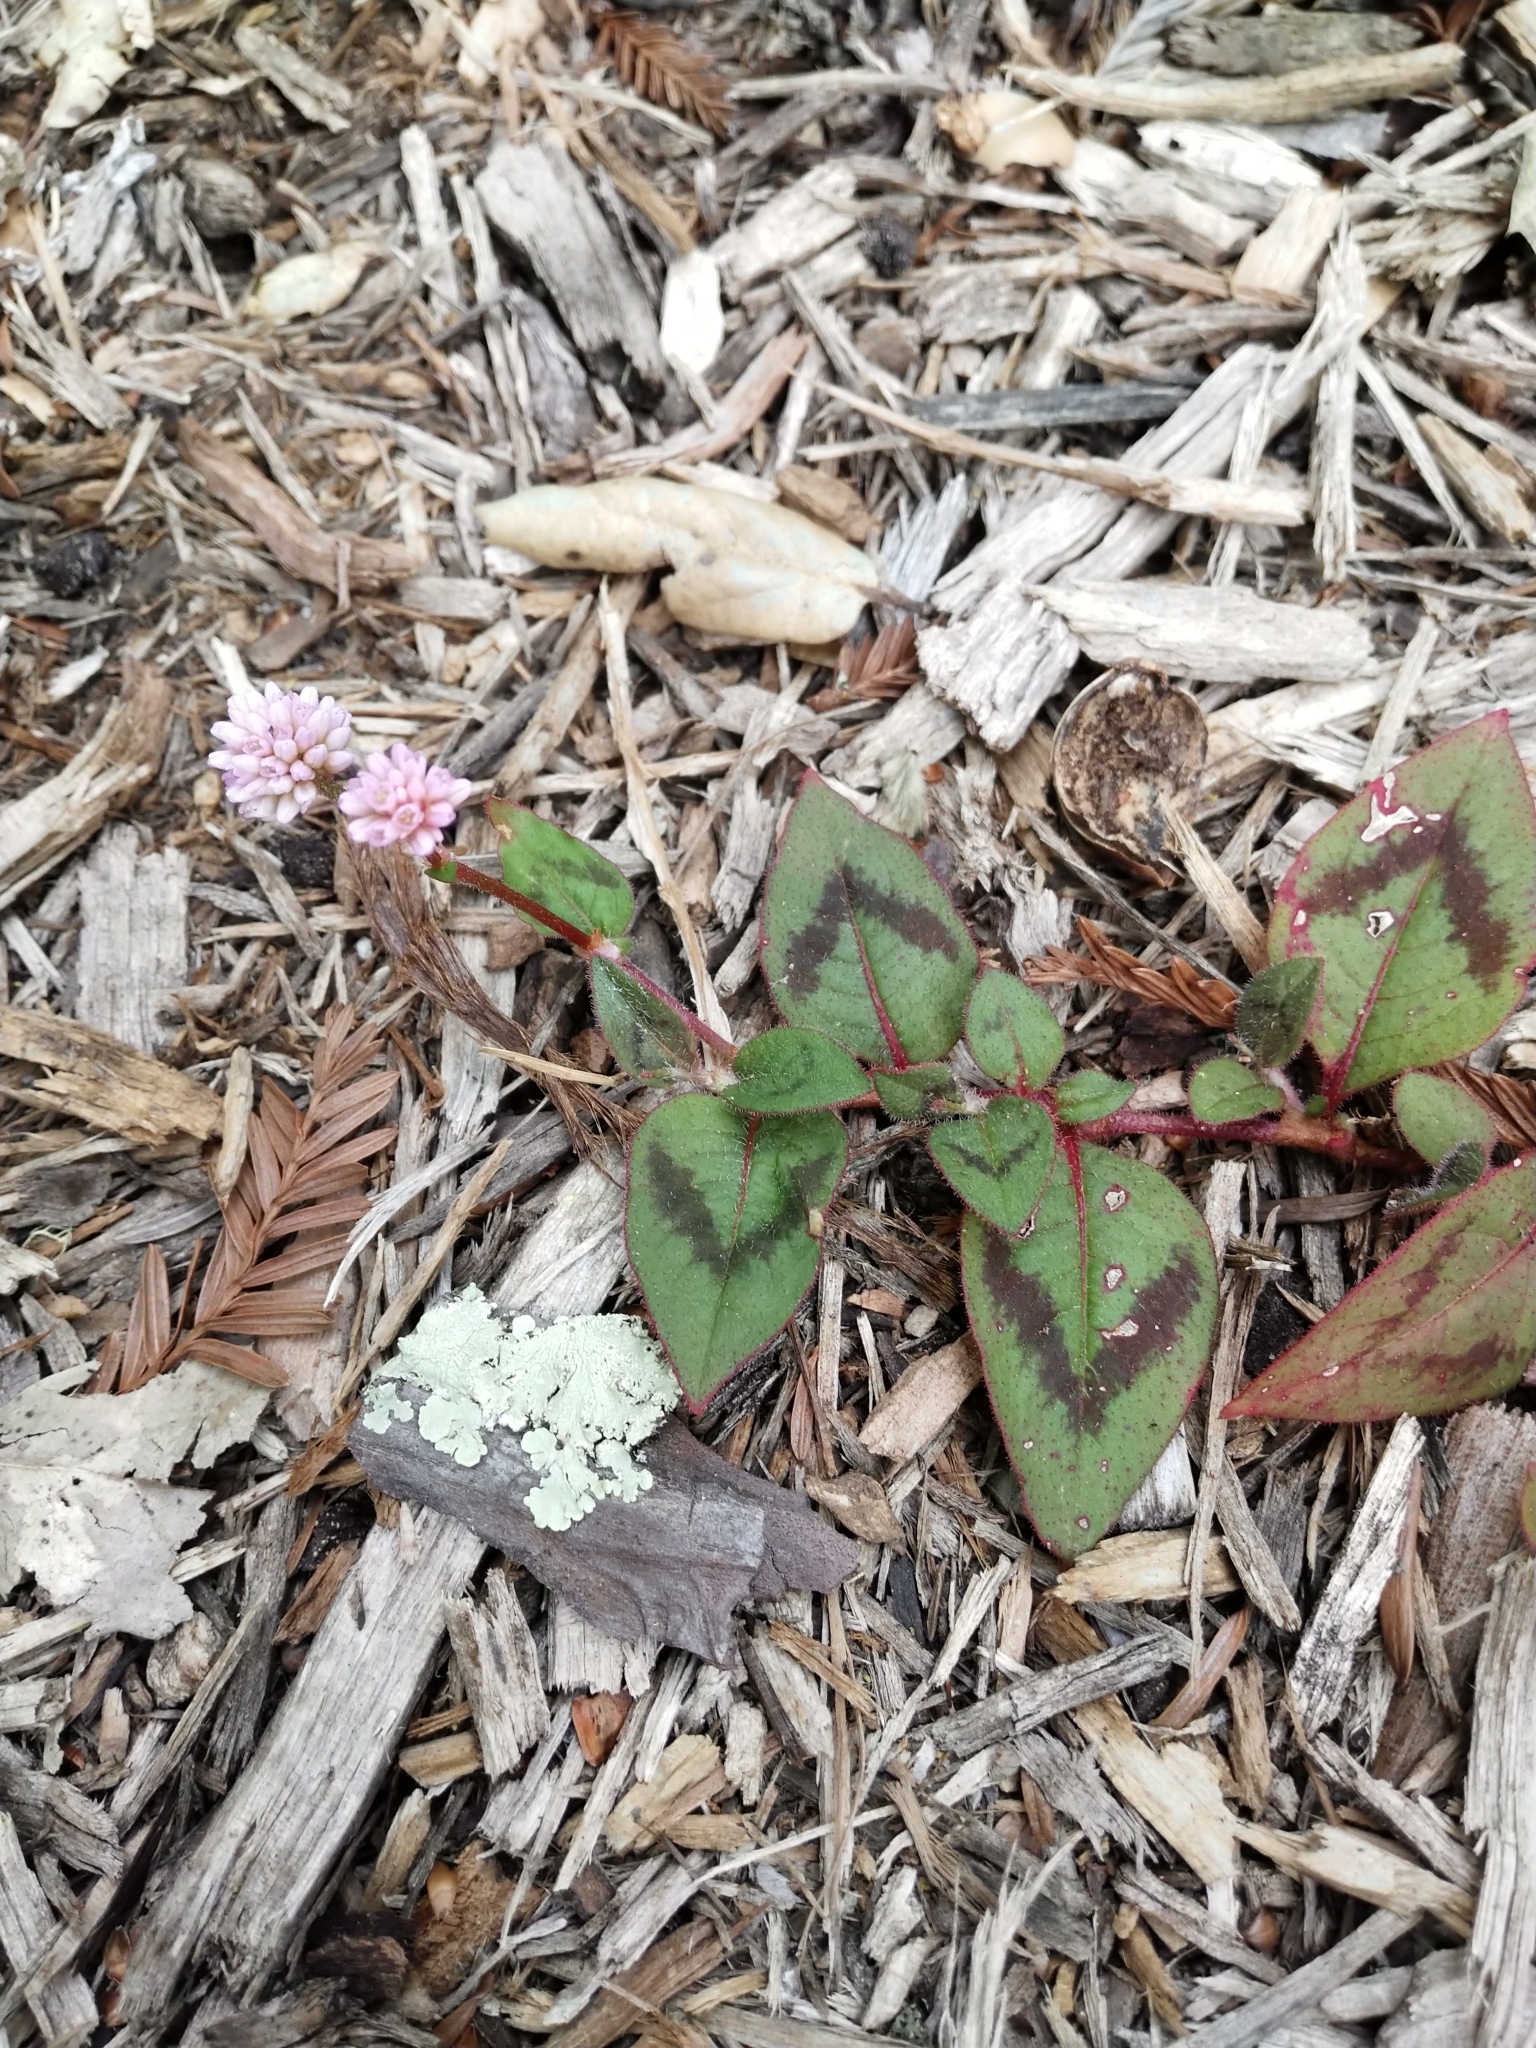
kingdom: Plantae
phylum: Tracheophyta
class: Magnoliopsida
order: Caryophyllales
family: Polygonaceae
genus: Persicaria
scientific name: Persicaria capitata
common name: Pinkhead smartweed
